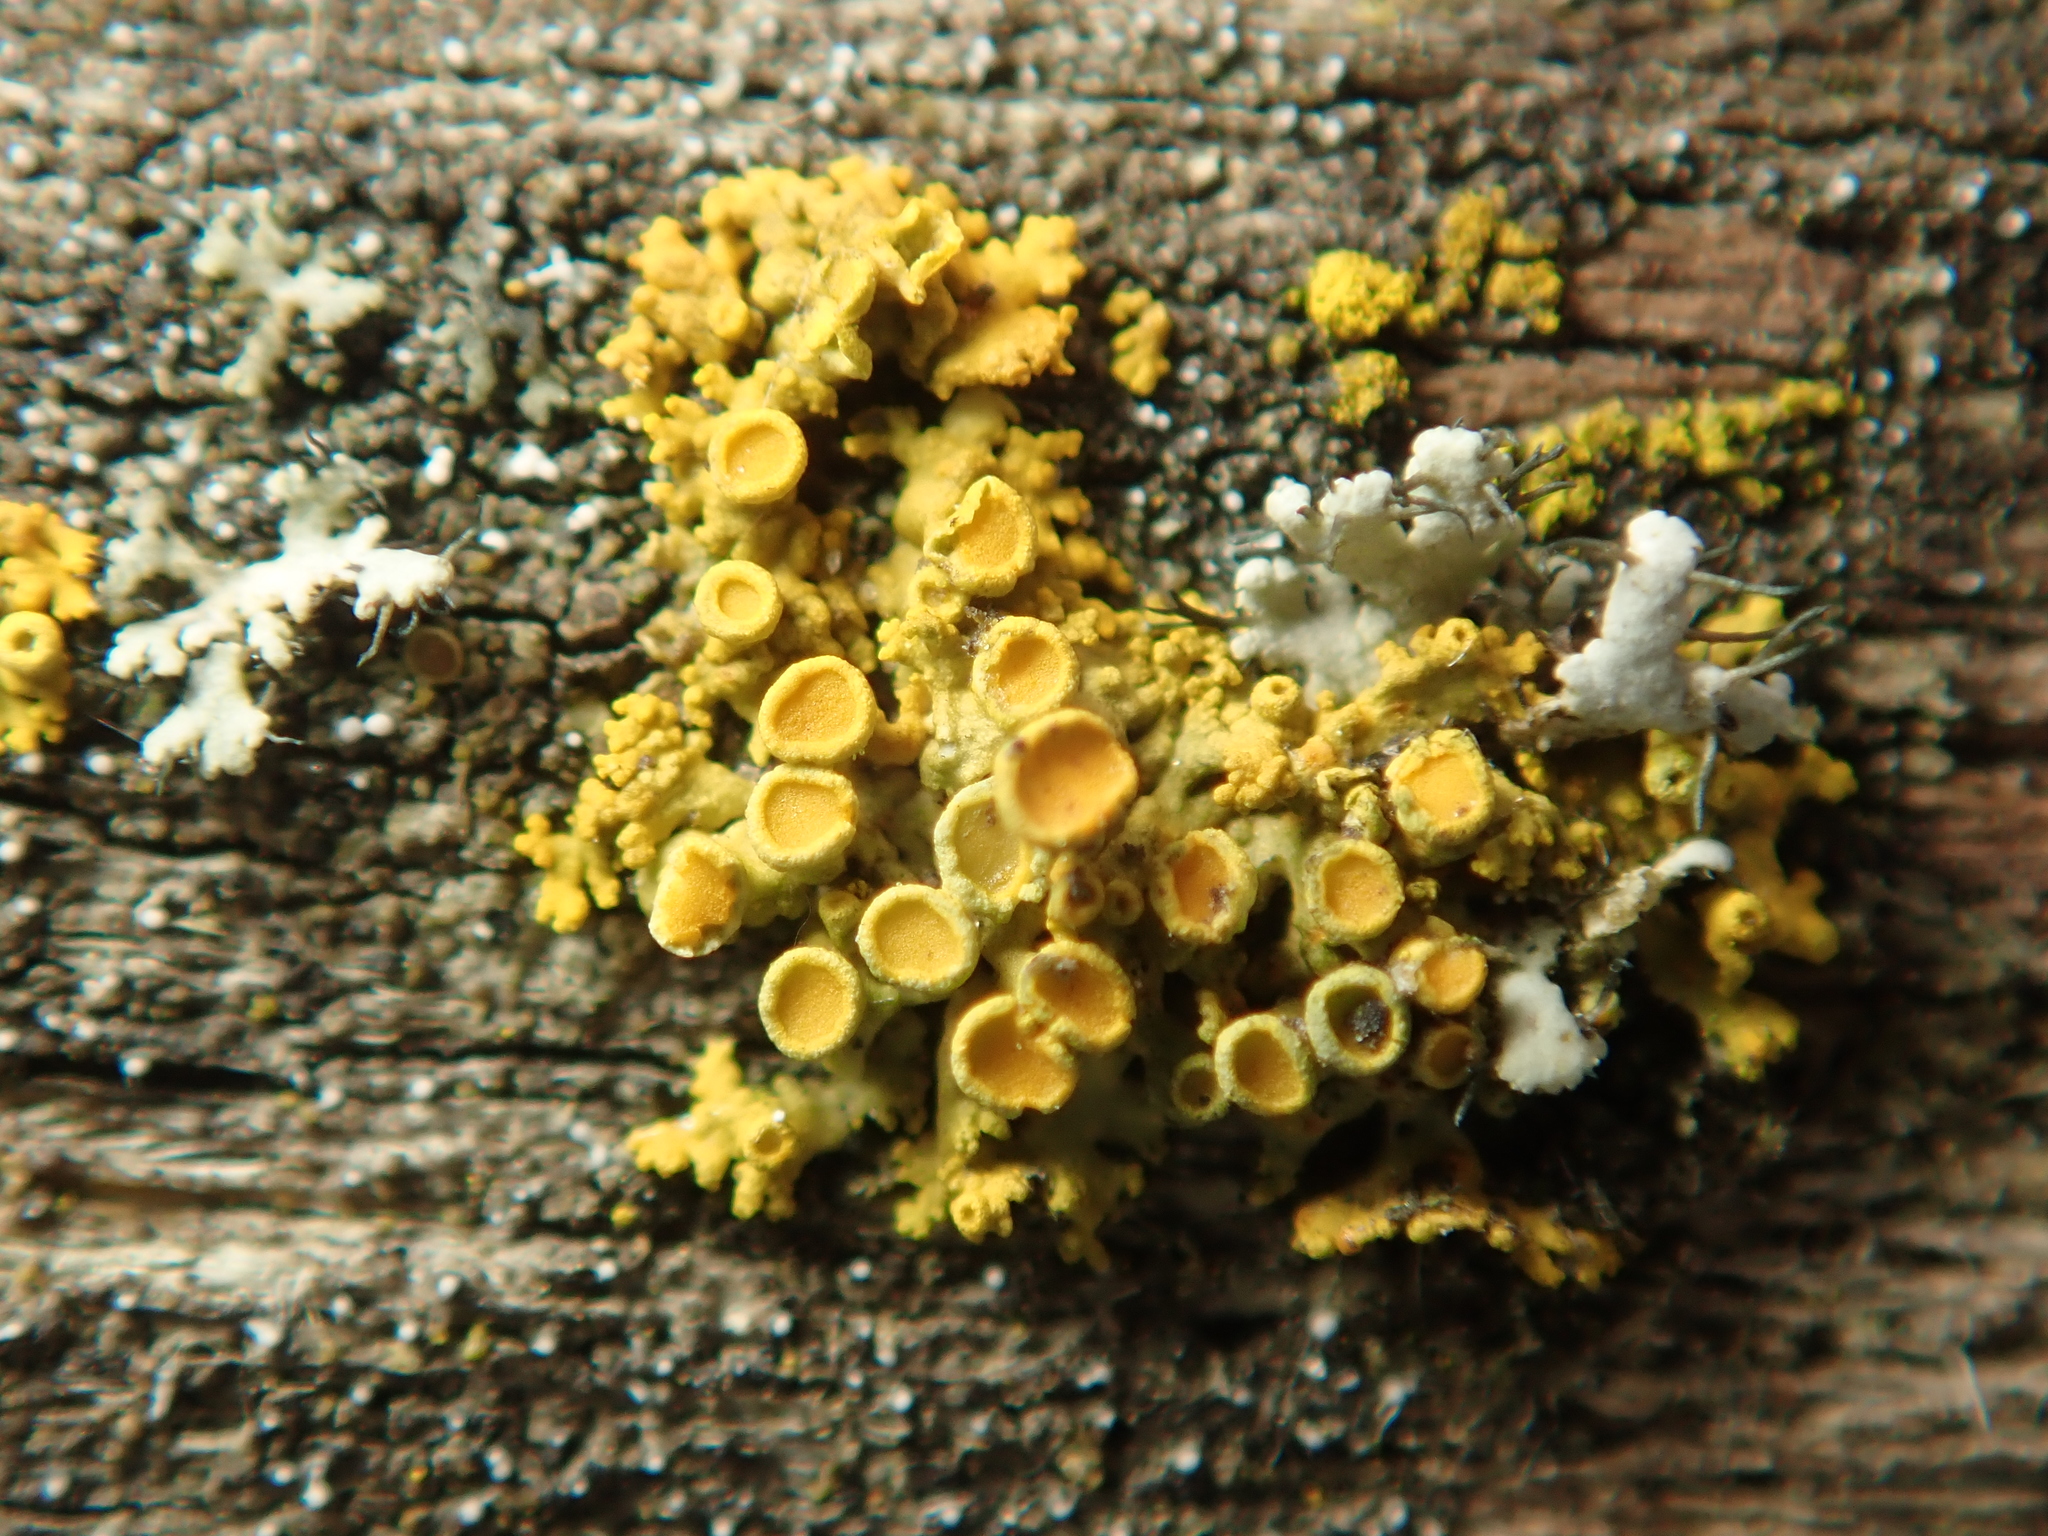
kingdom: Fungi
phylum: Ascomycota
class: Lecanoromycetes
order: Teloschistales
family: Teloschistaceae
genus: Polycauliona
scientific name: Polycauliona polycarpa
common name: Pin-cushion sunburst lichen
